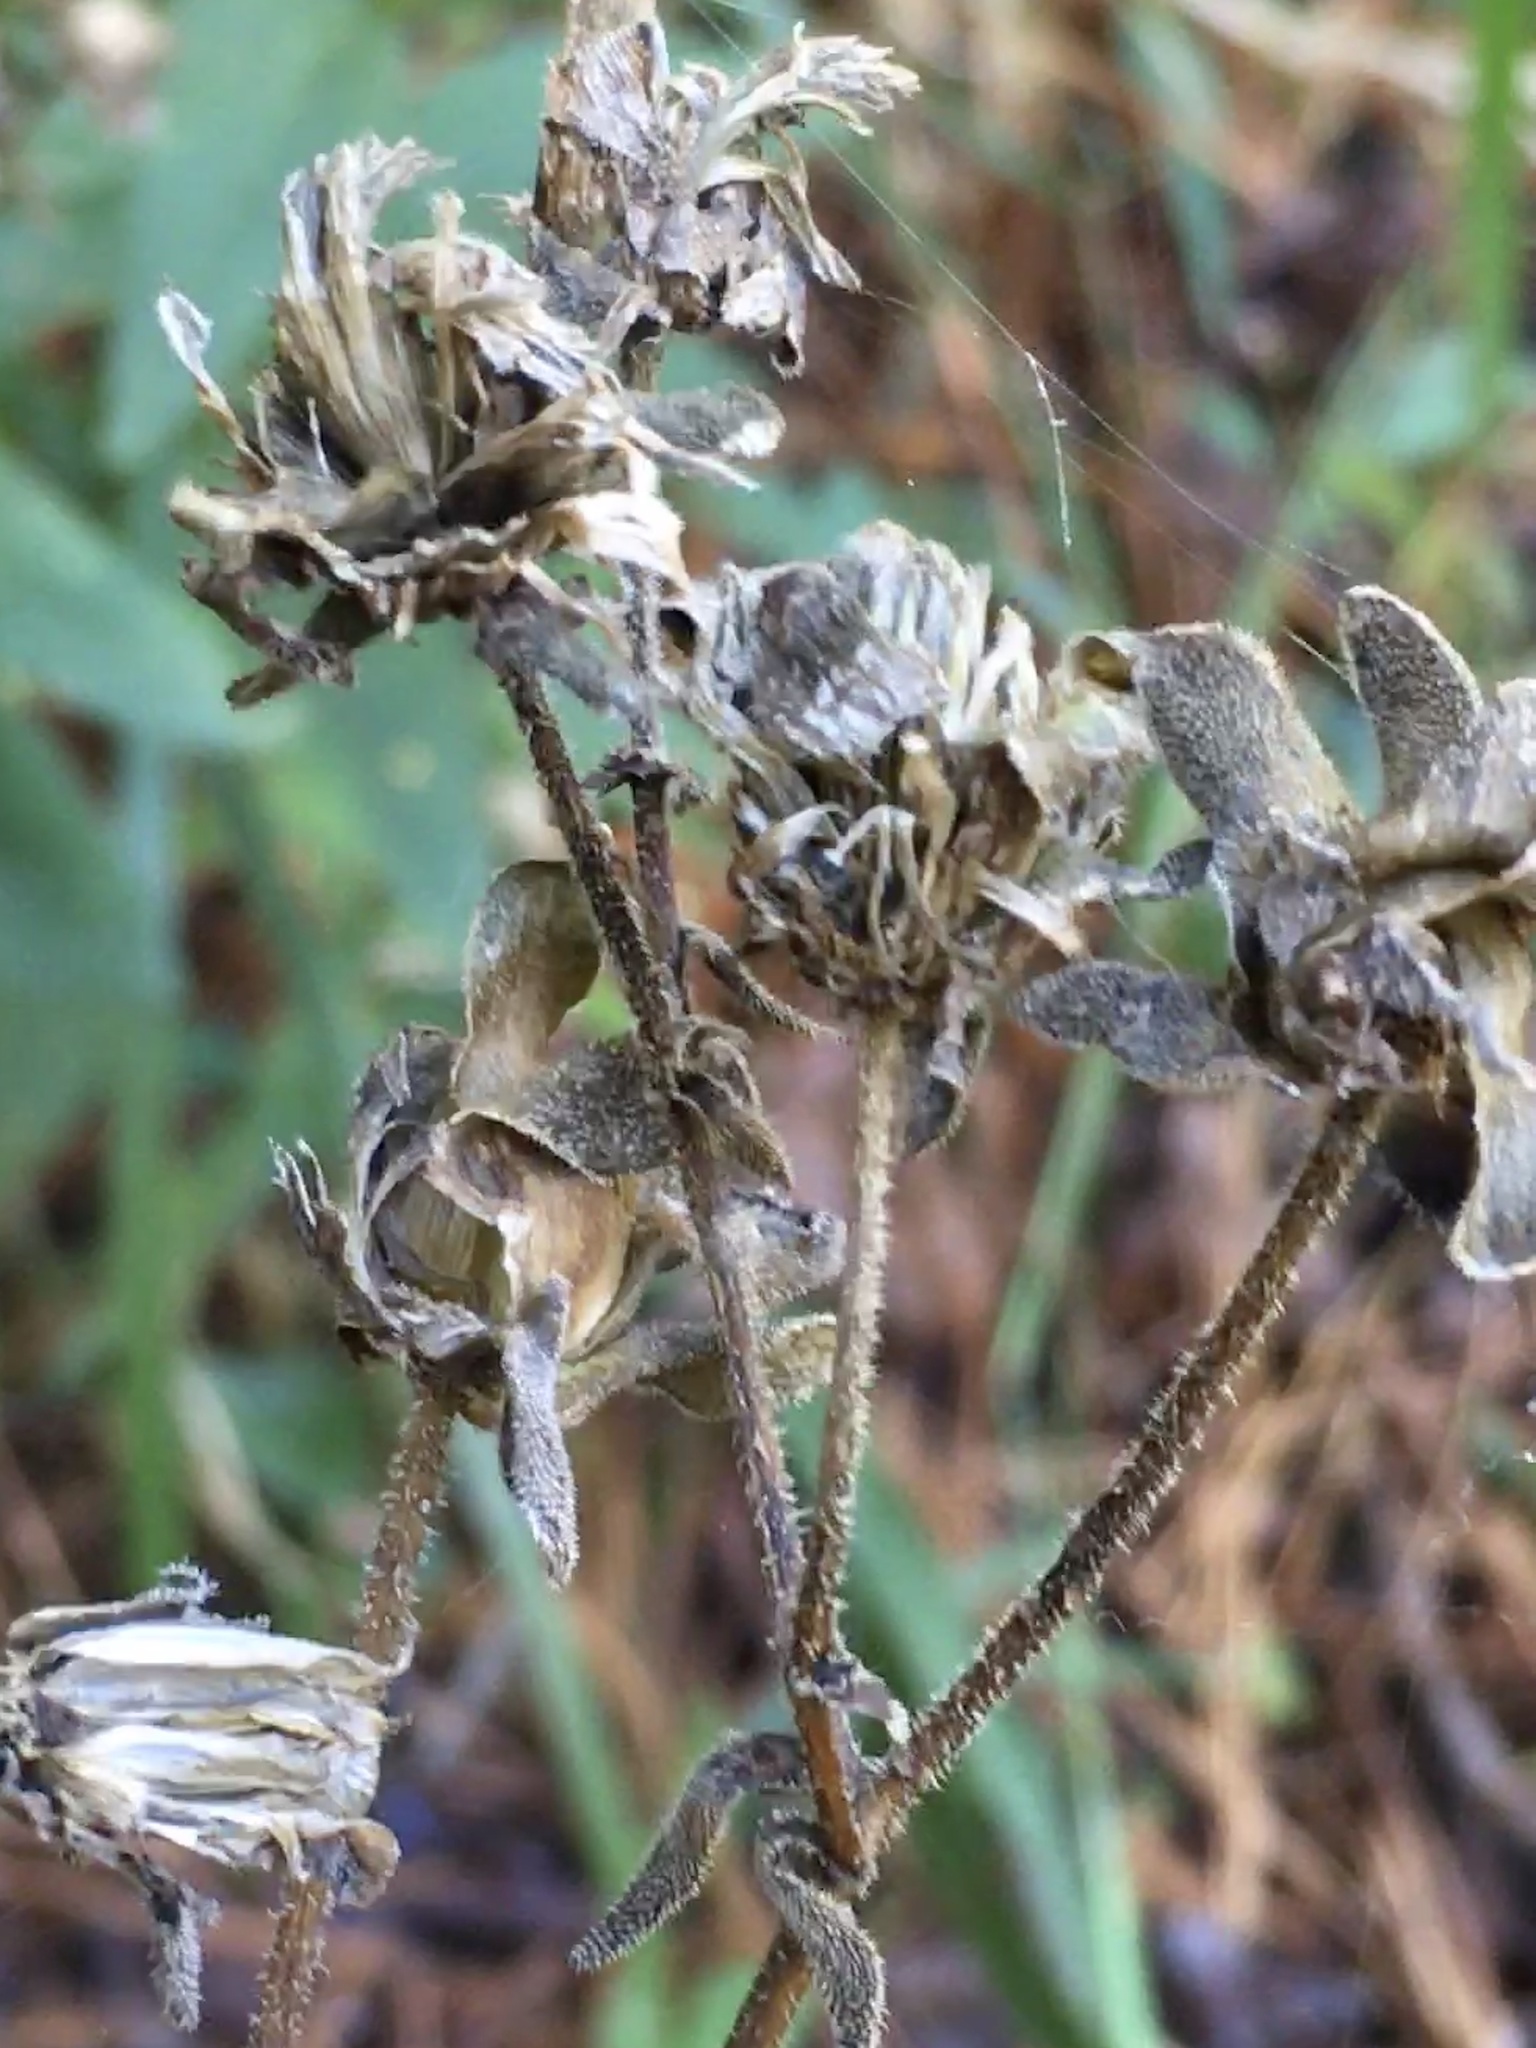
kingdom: Plantae
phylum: Tracheophyta
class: Magnoliopsida
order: Asterales
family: Asteraceae
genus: Silphium
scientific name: Silphium asteriscus
